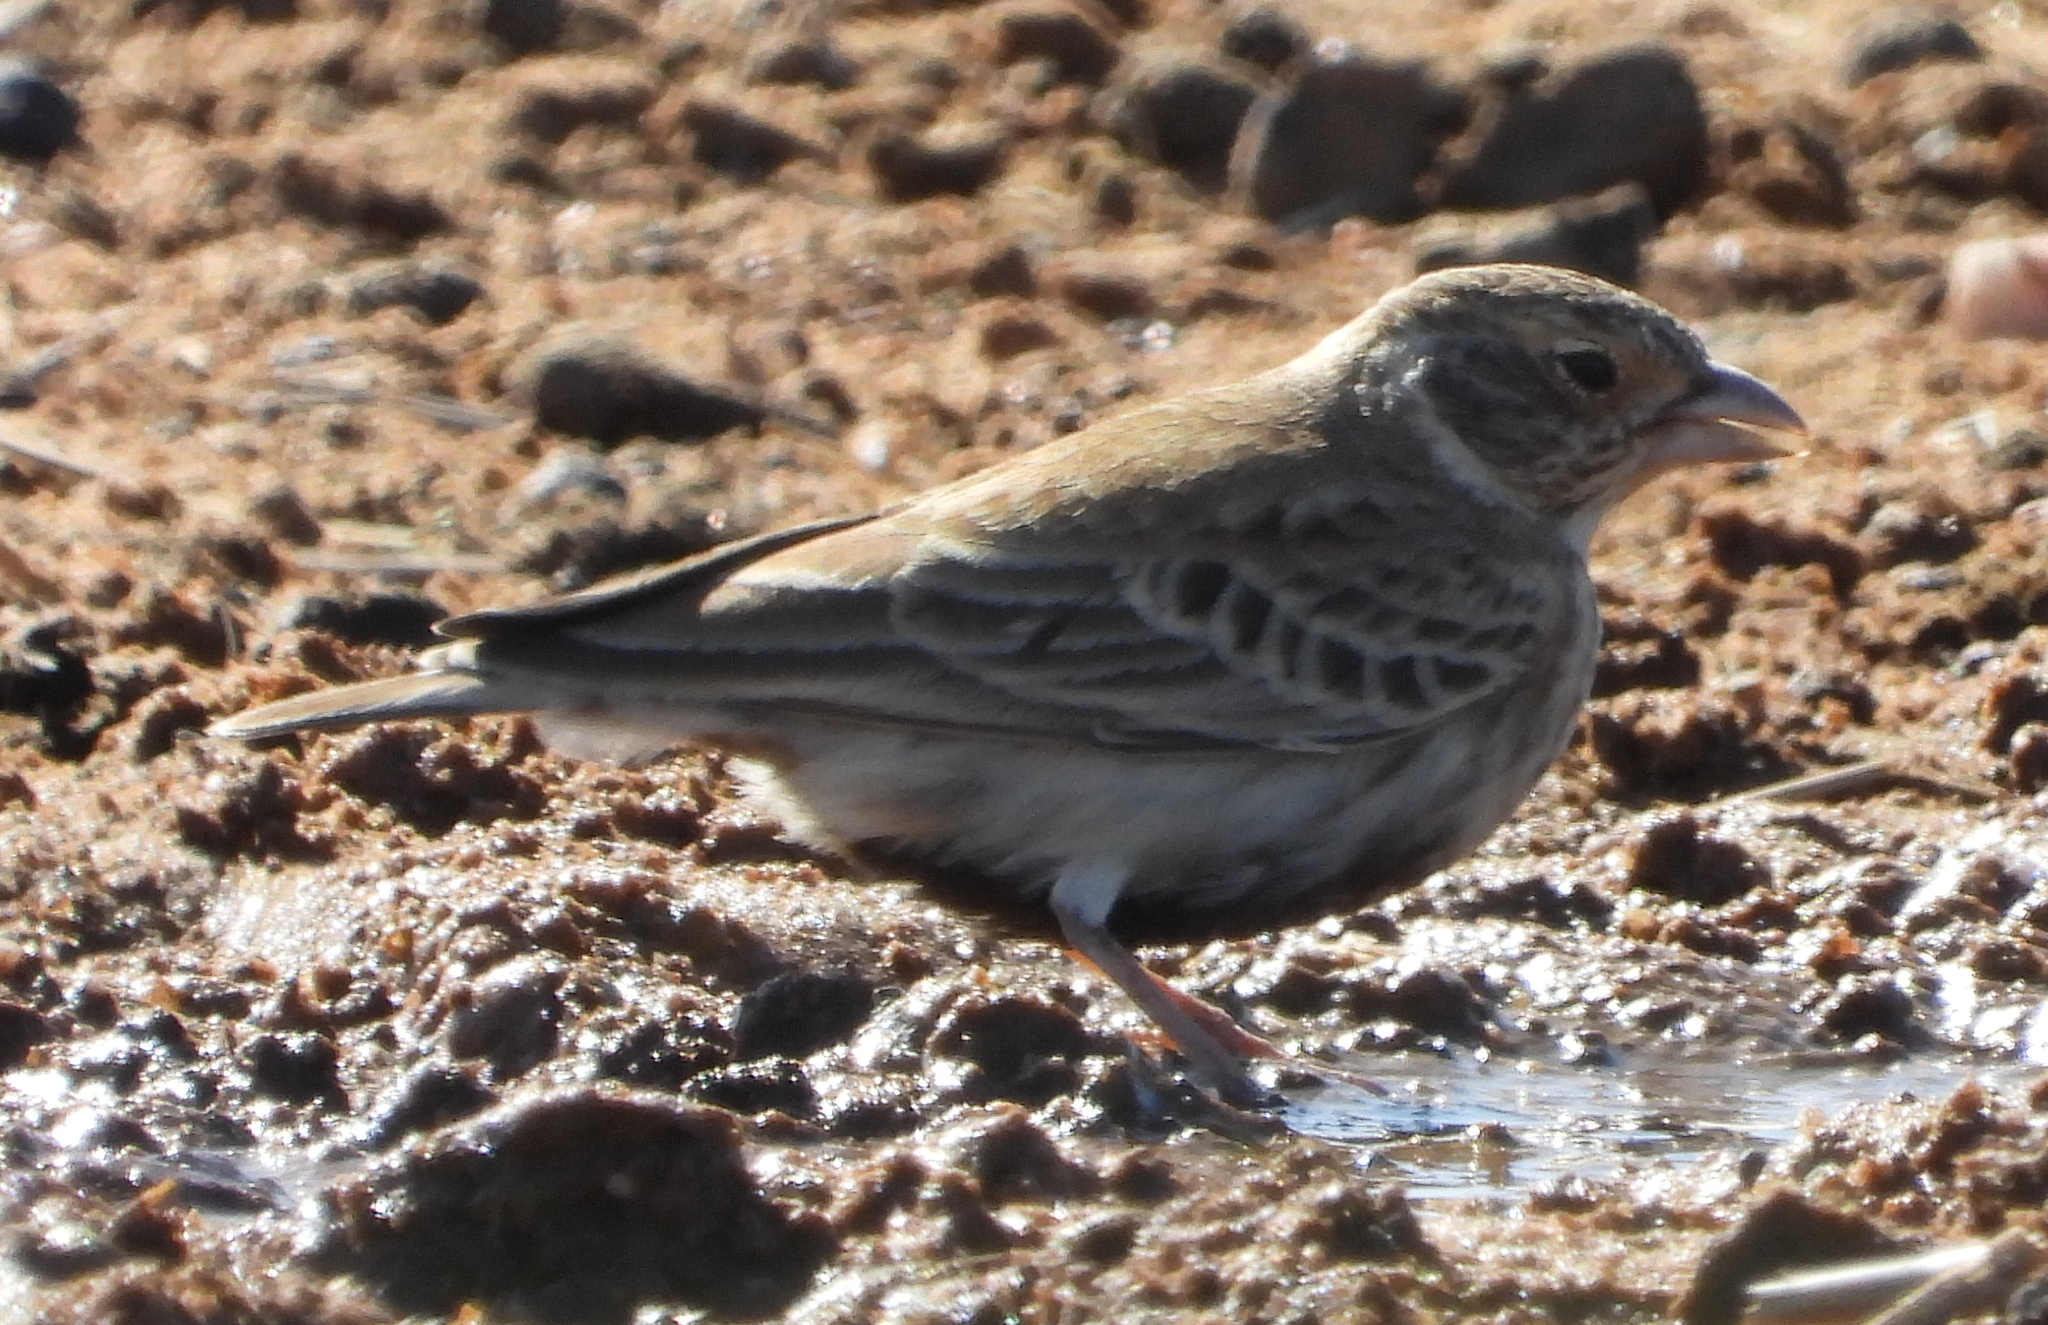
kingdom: Animalia
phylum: Chordata
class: Aves
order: Passeriformes
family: Alaudidae
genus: Eremopterix
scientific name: Eremopterix verticalis
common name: Grey-backed sparrow-lark
